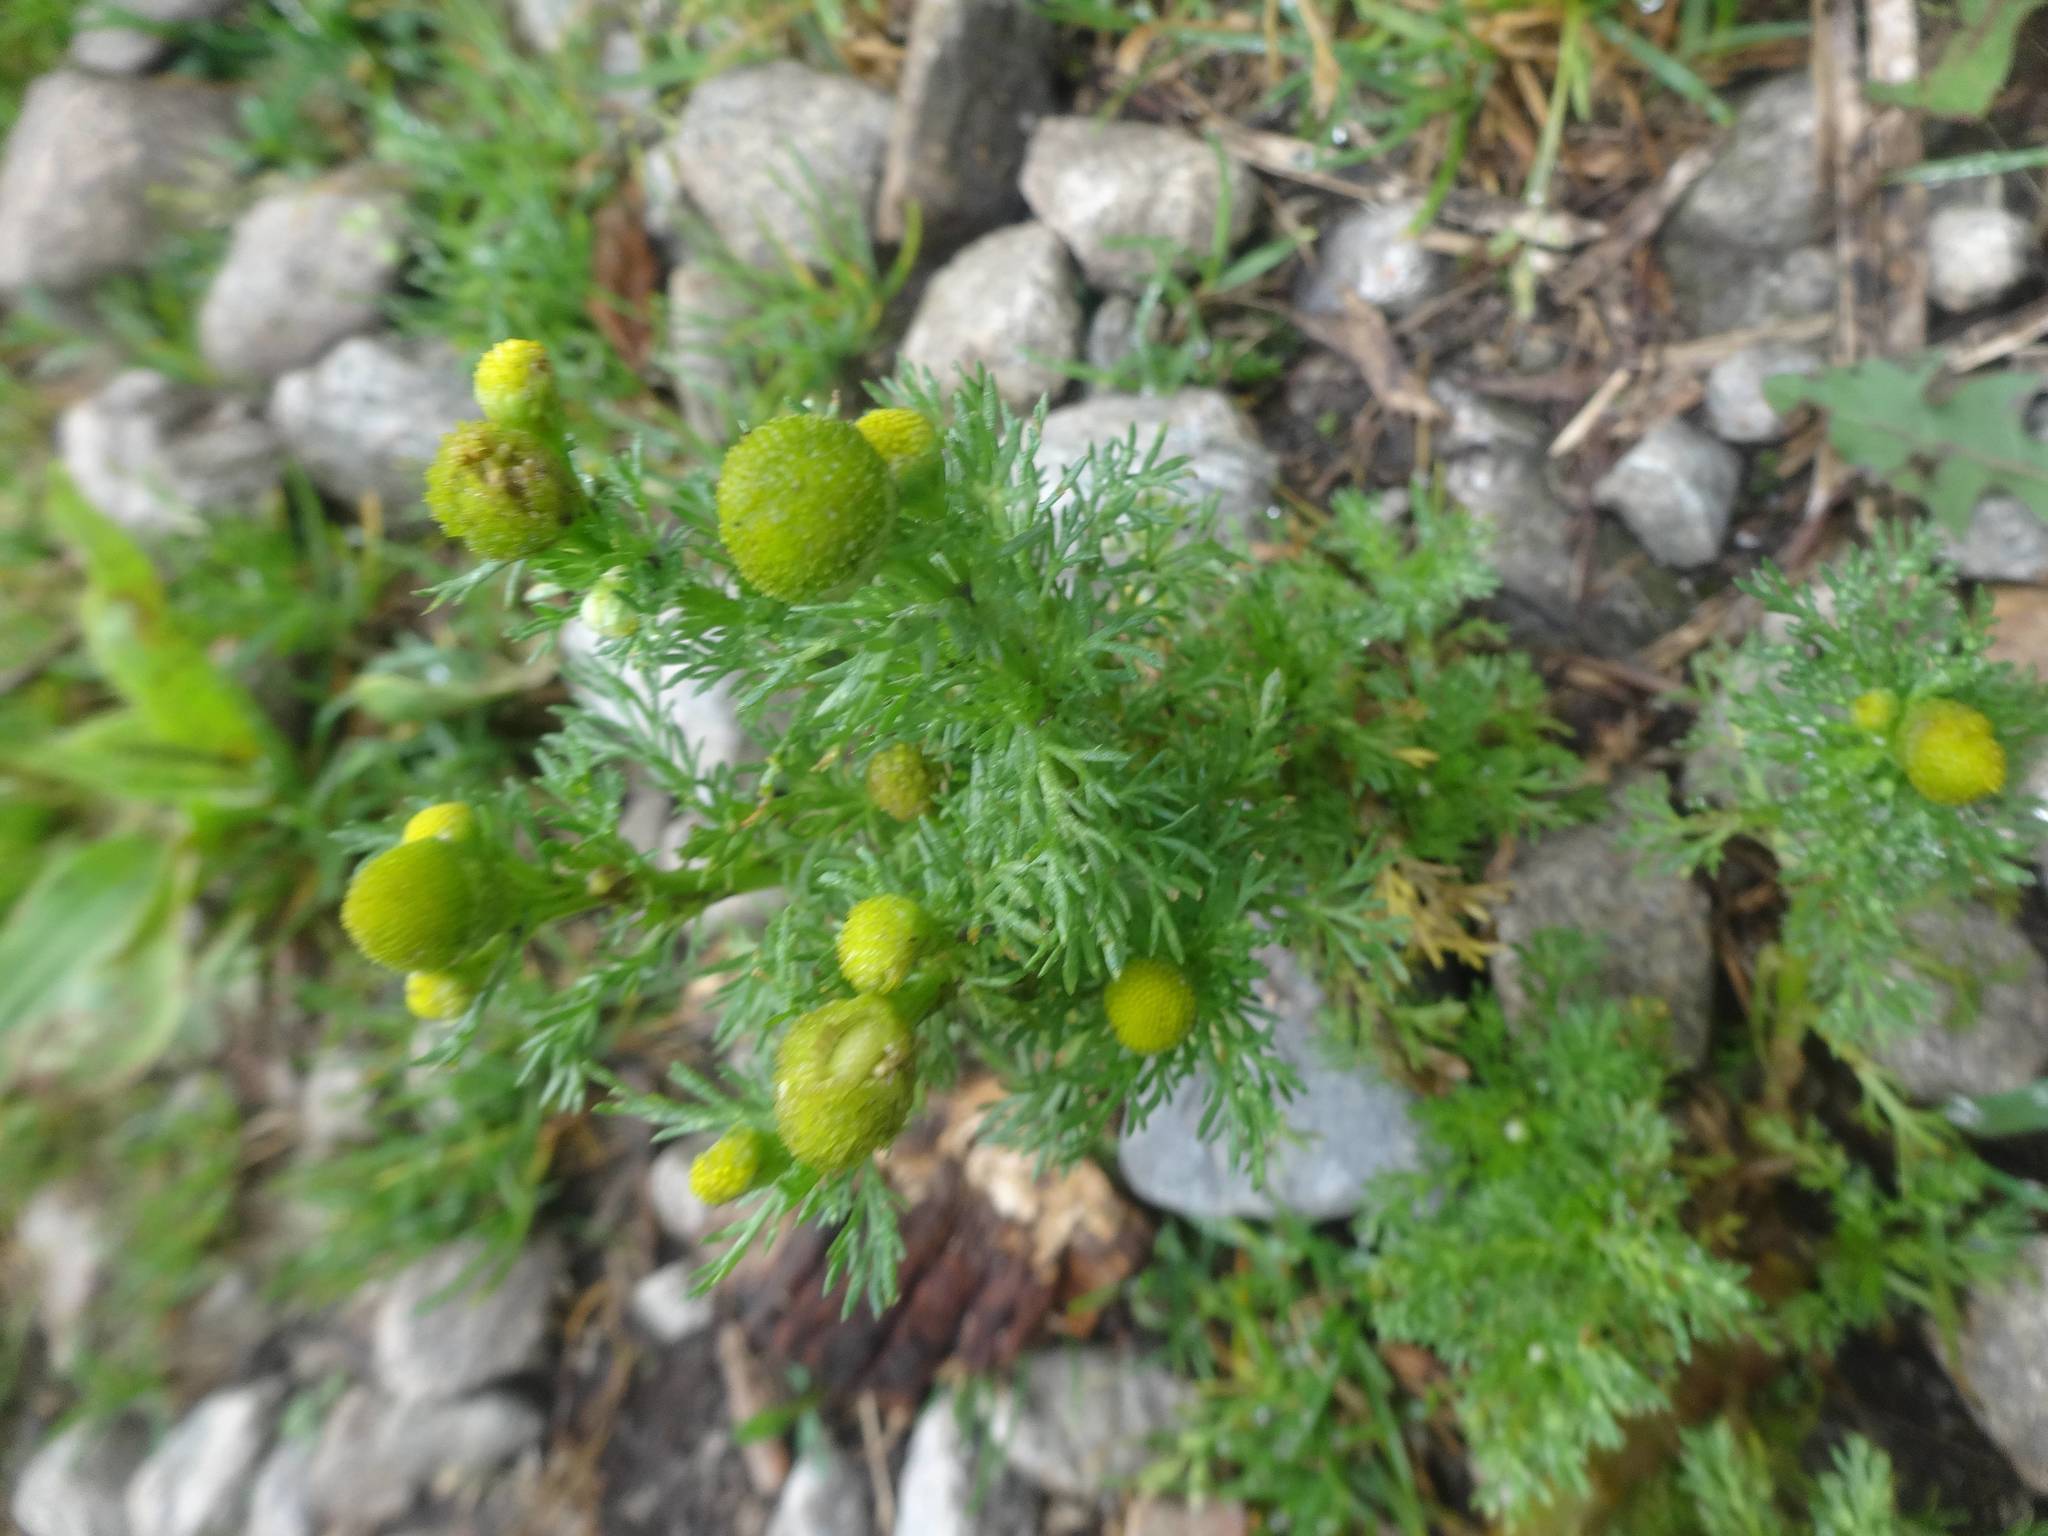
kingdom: Plantae
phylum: Tracheophyta
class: Magnoliopsida
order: Asterales
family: Asteraceae
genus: Matricaria
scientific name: Matricaria discoidea
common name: Disc mayweed
